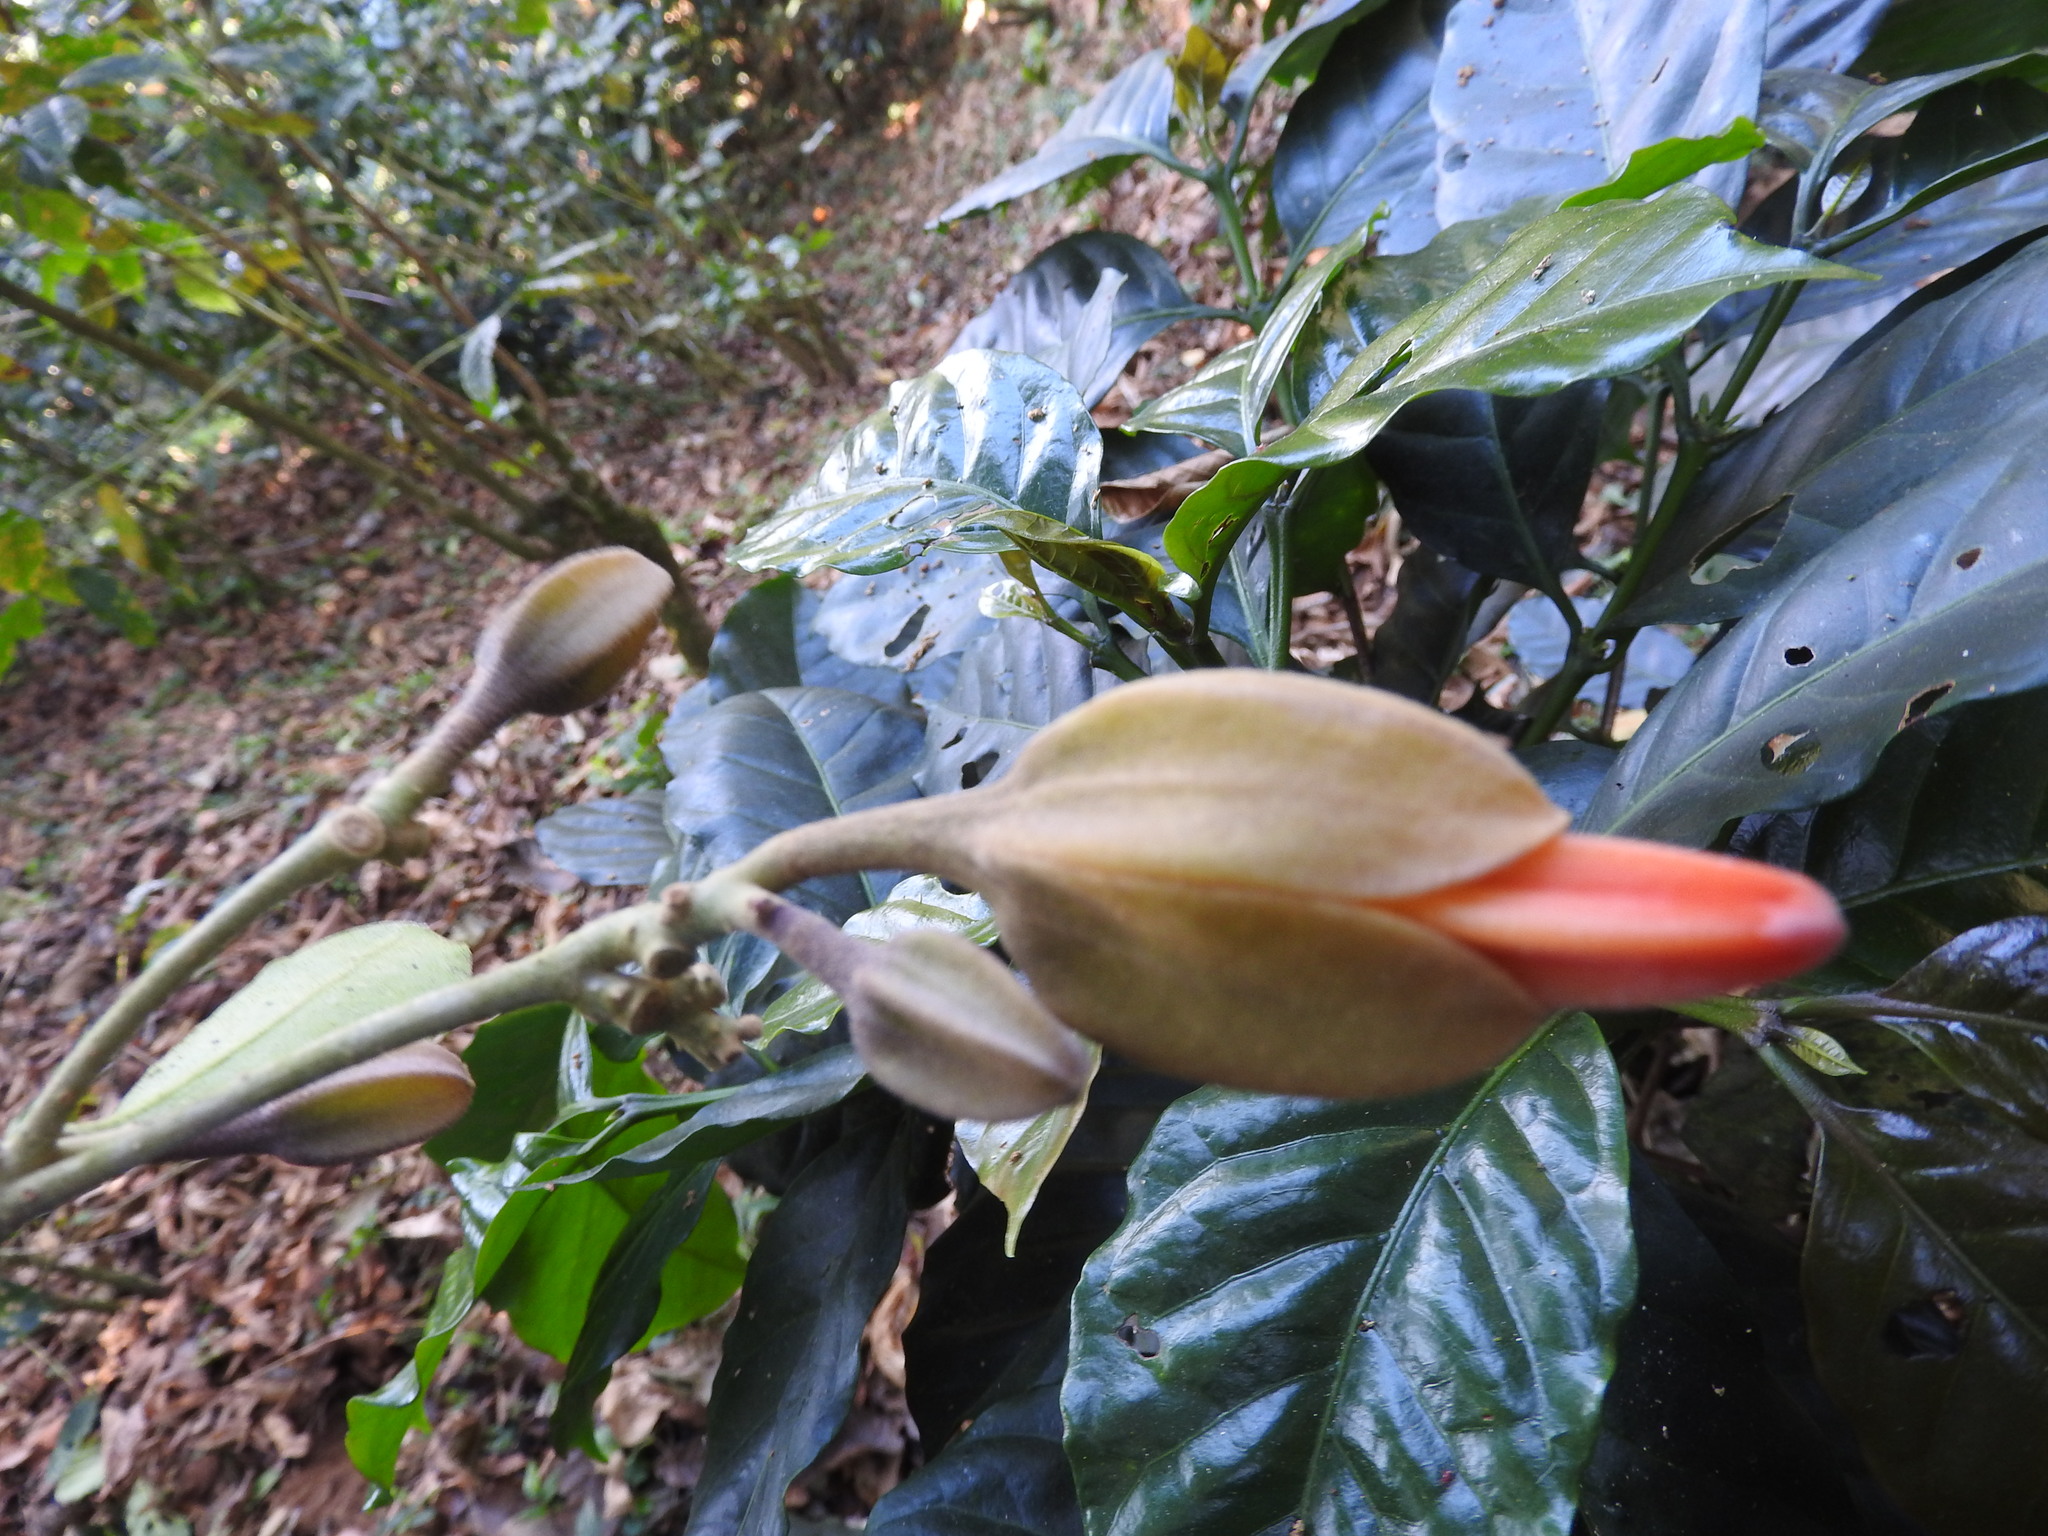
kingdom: Plantae
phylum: Tracheophyta
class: Magnoliopsida
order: Solanales
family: Solanaceae
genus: Juanulloa
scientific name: Juanulloa mexicana
